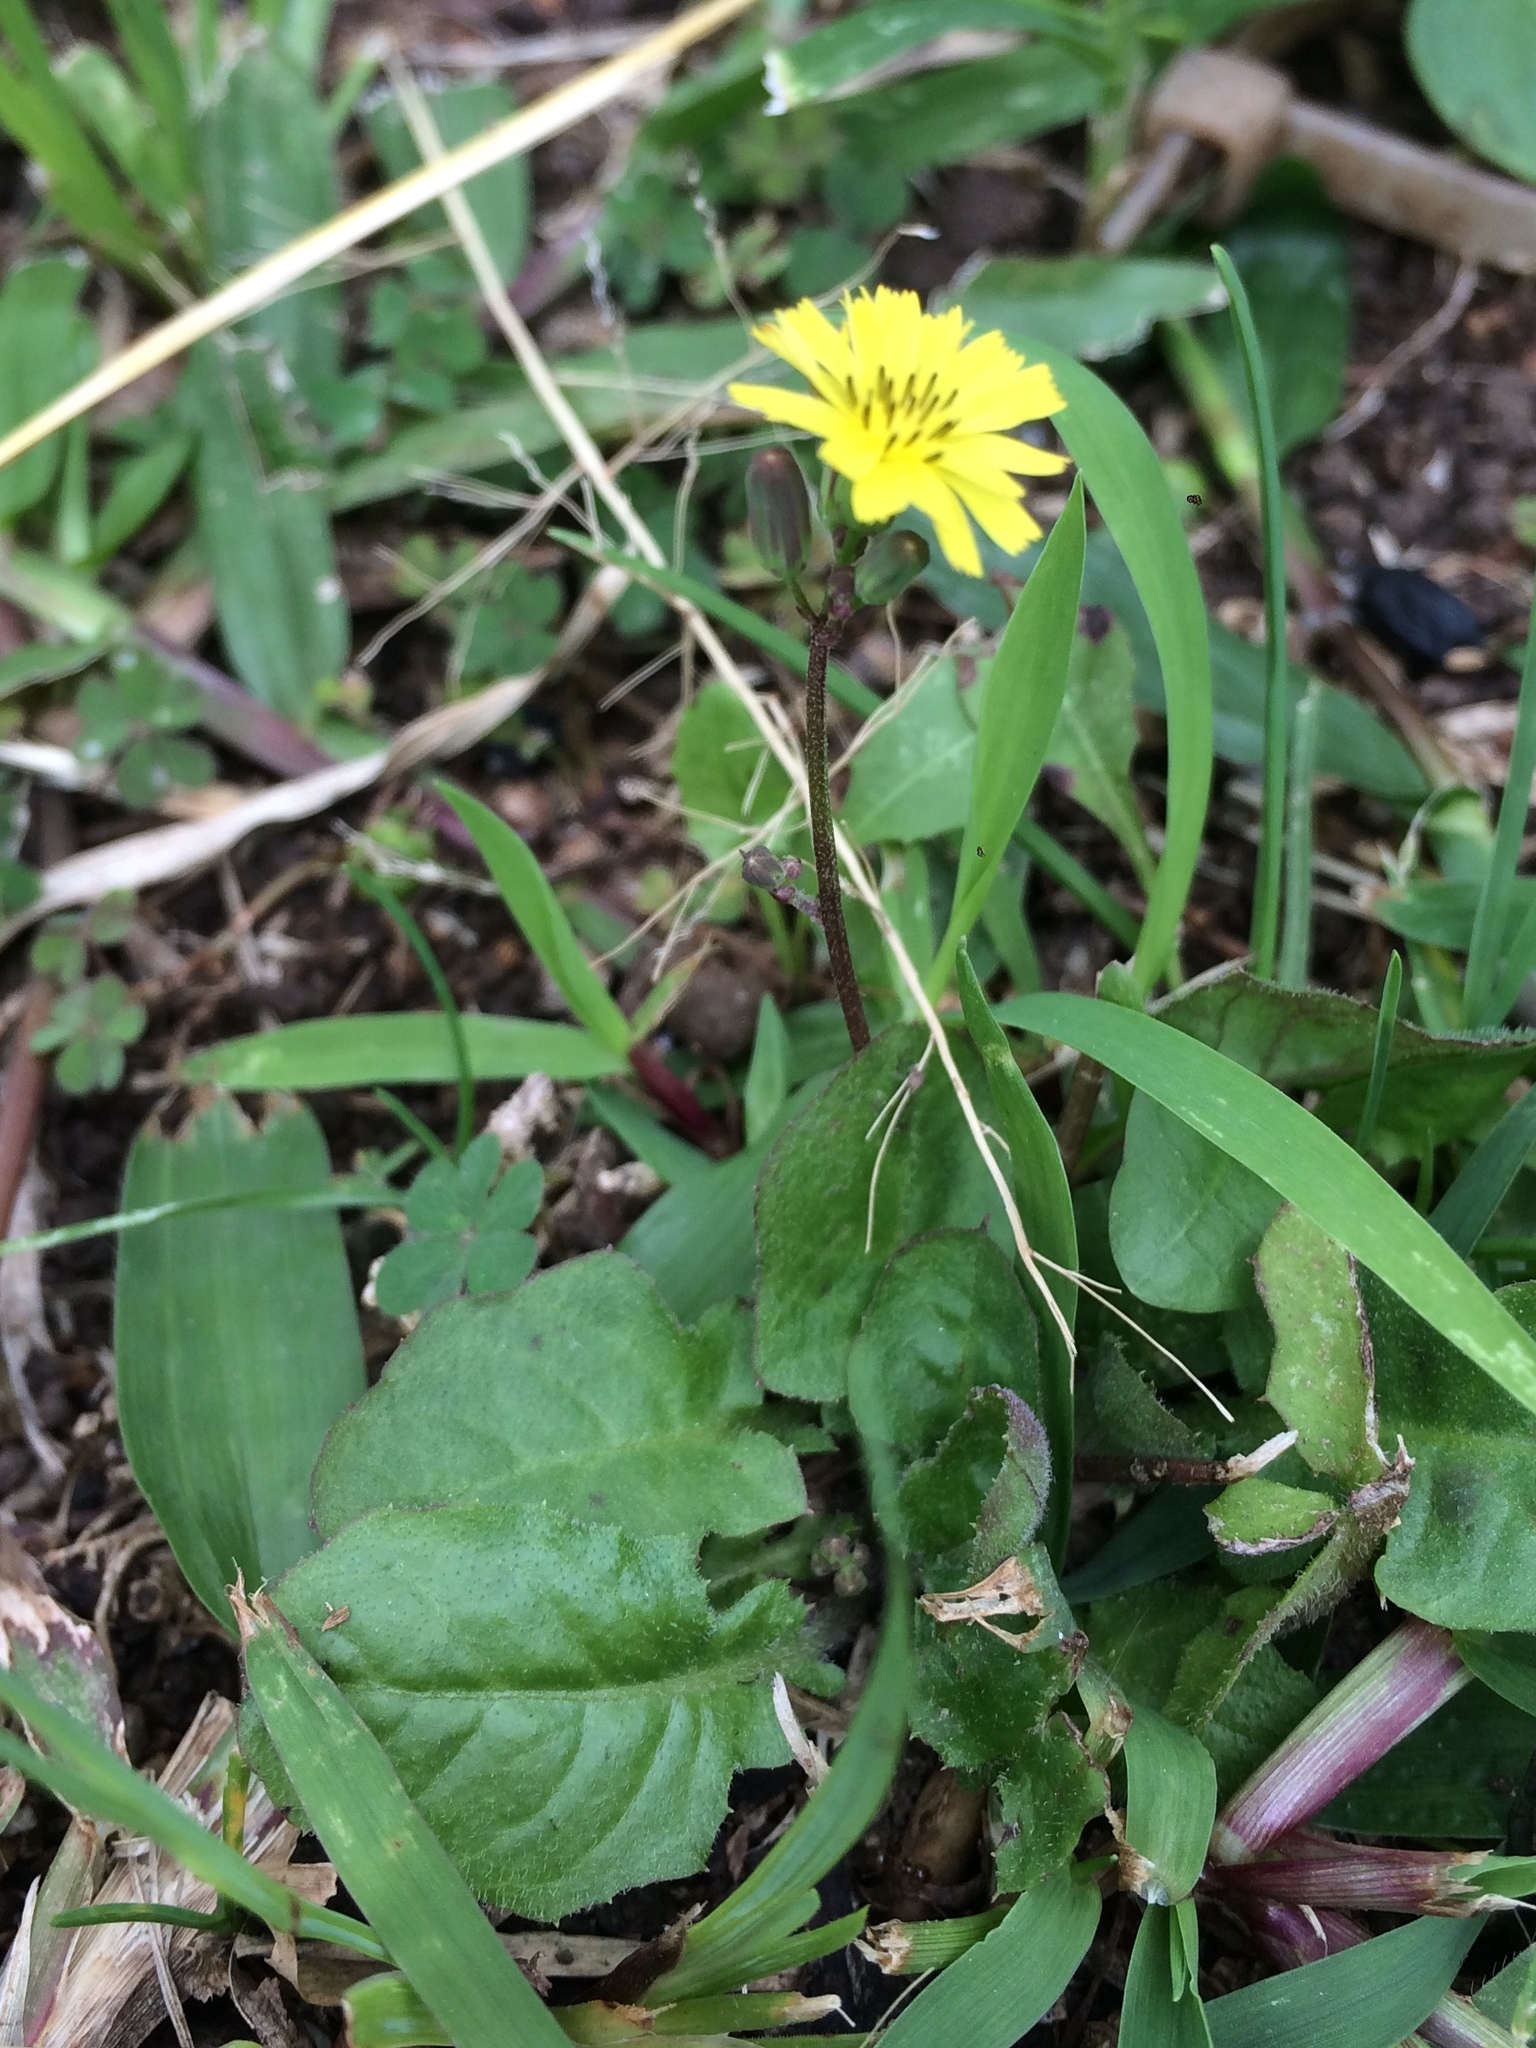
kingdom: Plantae
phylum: Tracheophyta
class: Magnoliopsida
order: Asterales
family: Asteraceae
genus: Youngia
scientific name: Youngia japonica
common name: Oriental false hawksbeard
